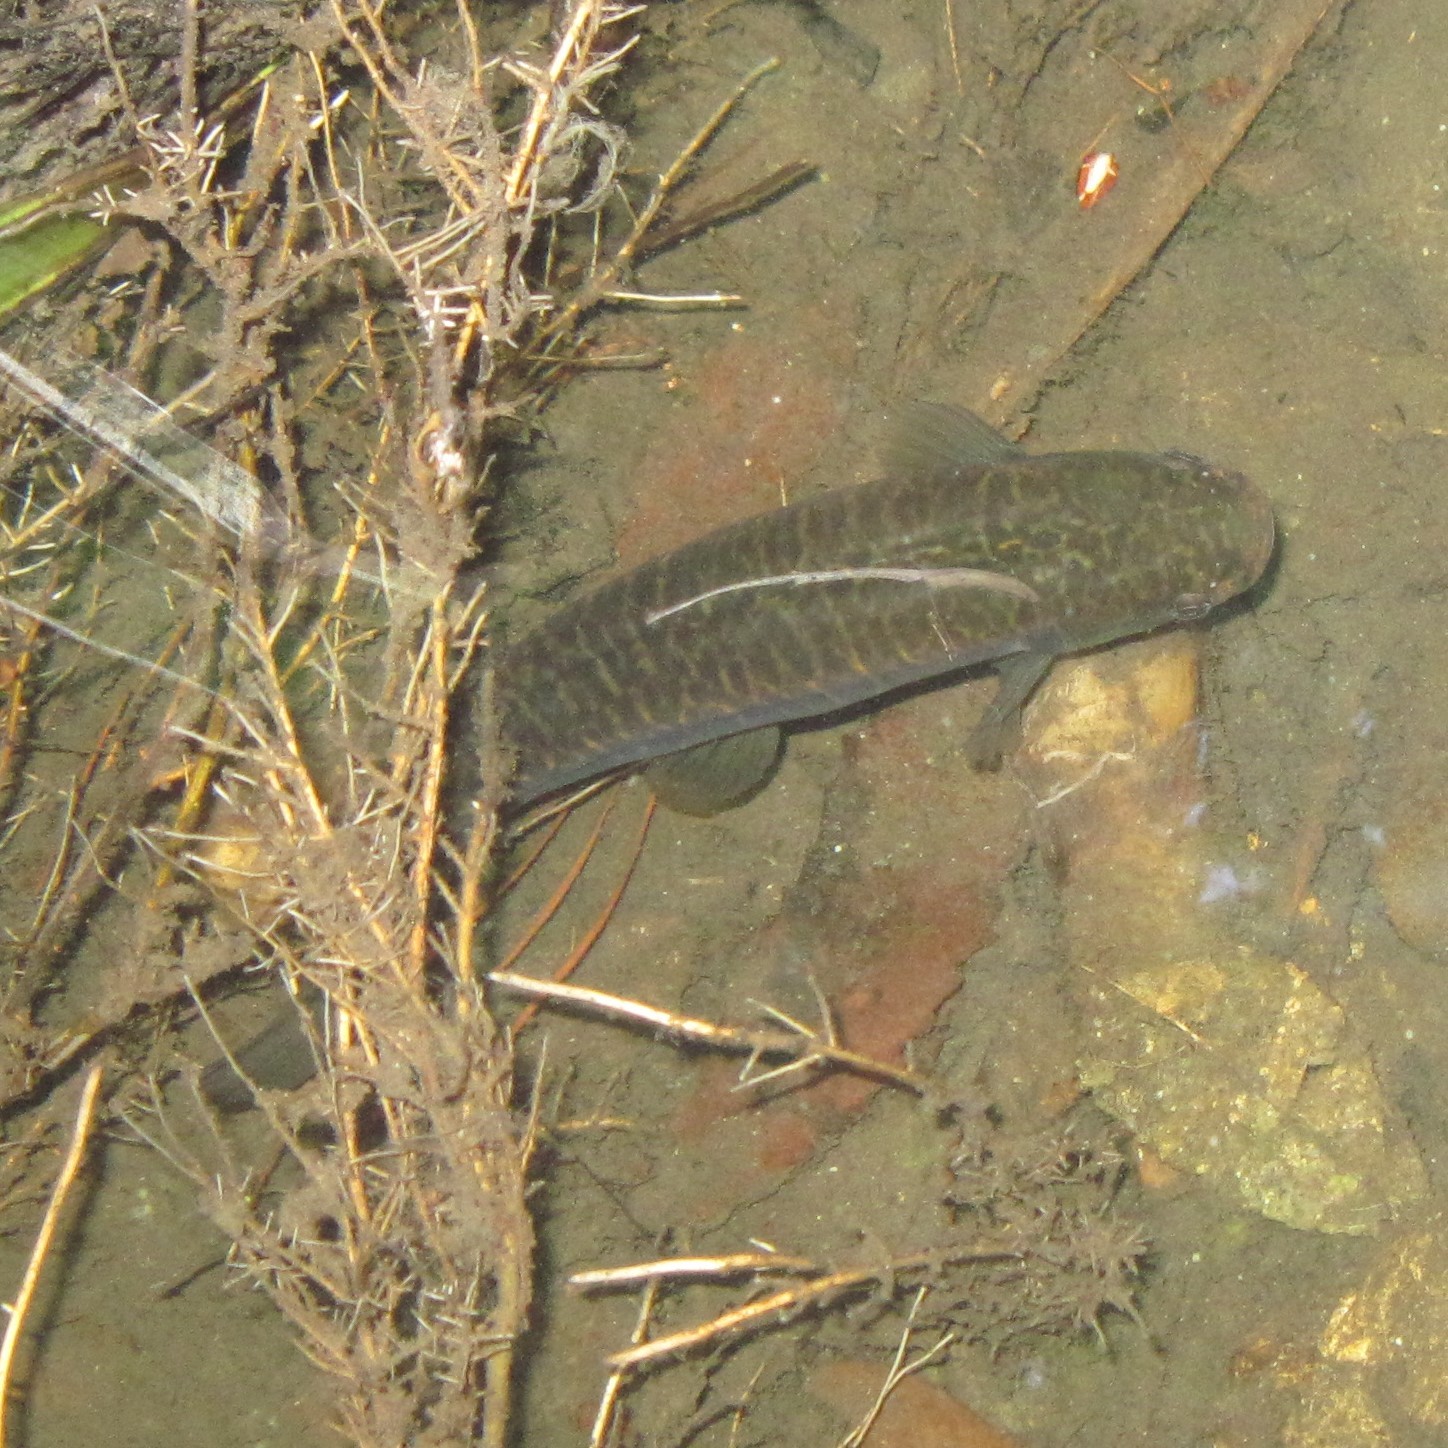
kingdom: Animalia
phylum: Chordata
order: Osmeriformes
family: Galaxiidae
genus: Galaxias
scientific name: Galaxias fasciatus
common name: Banded kokopu
